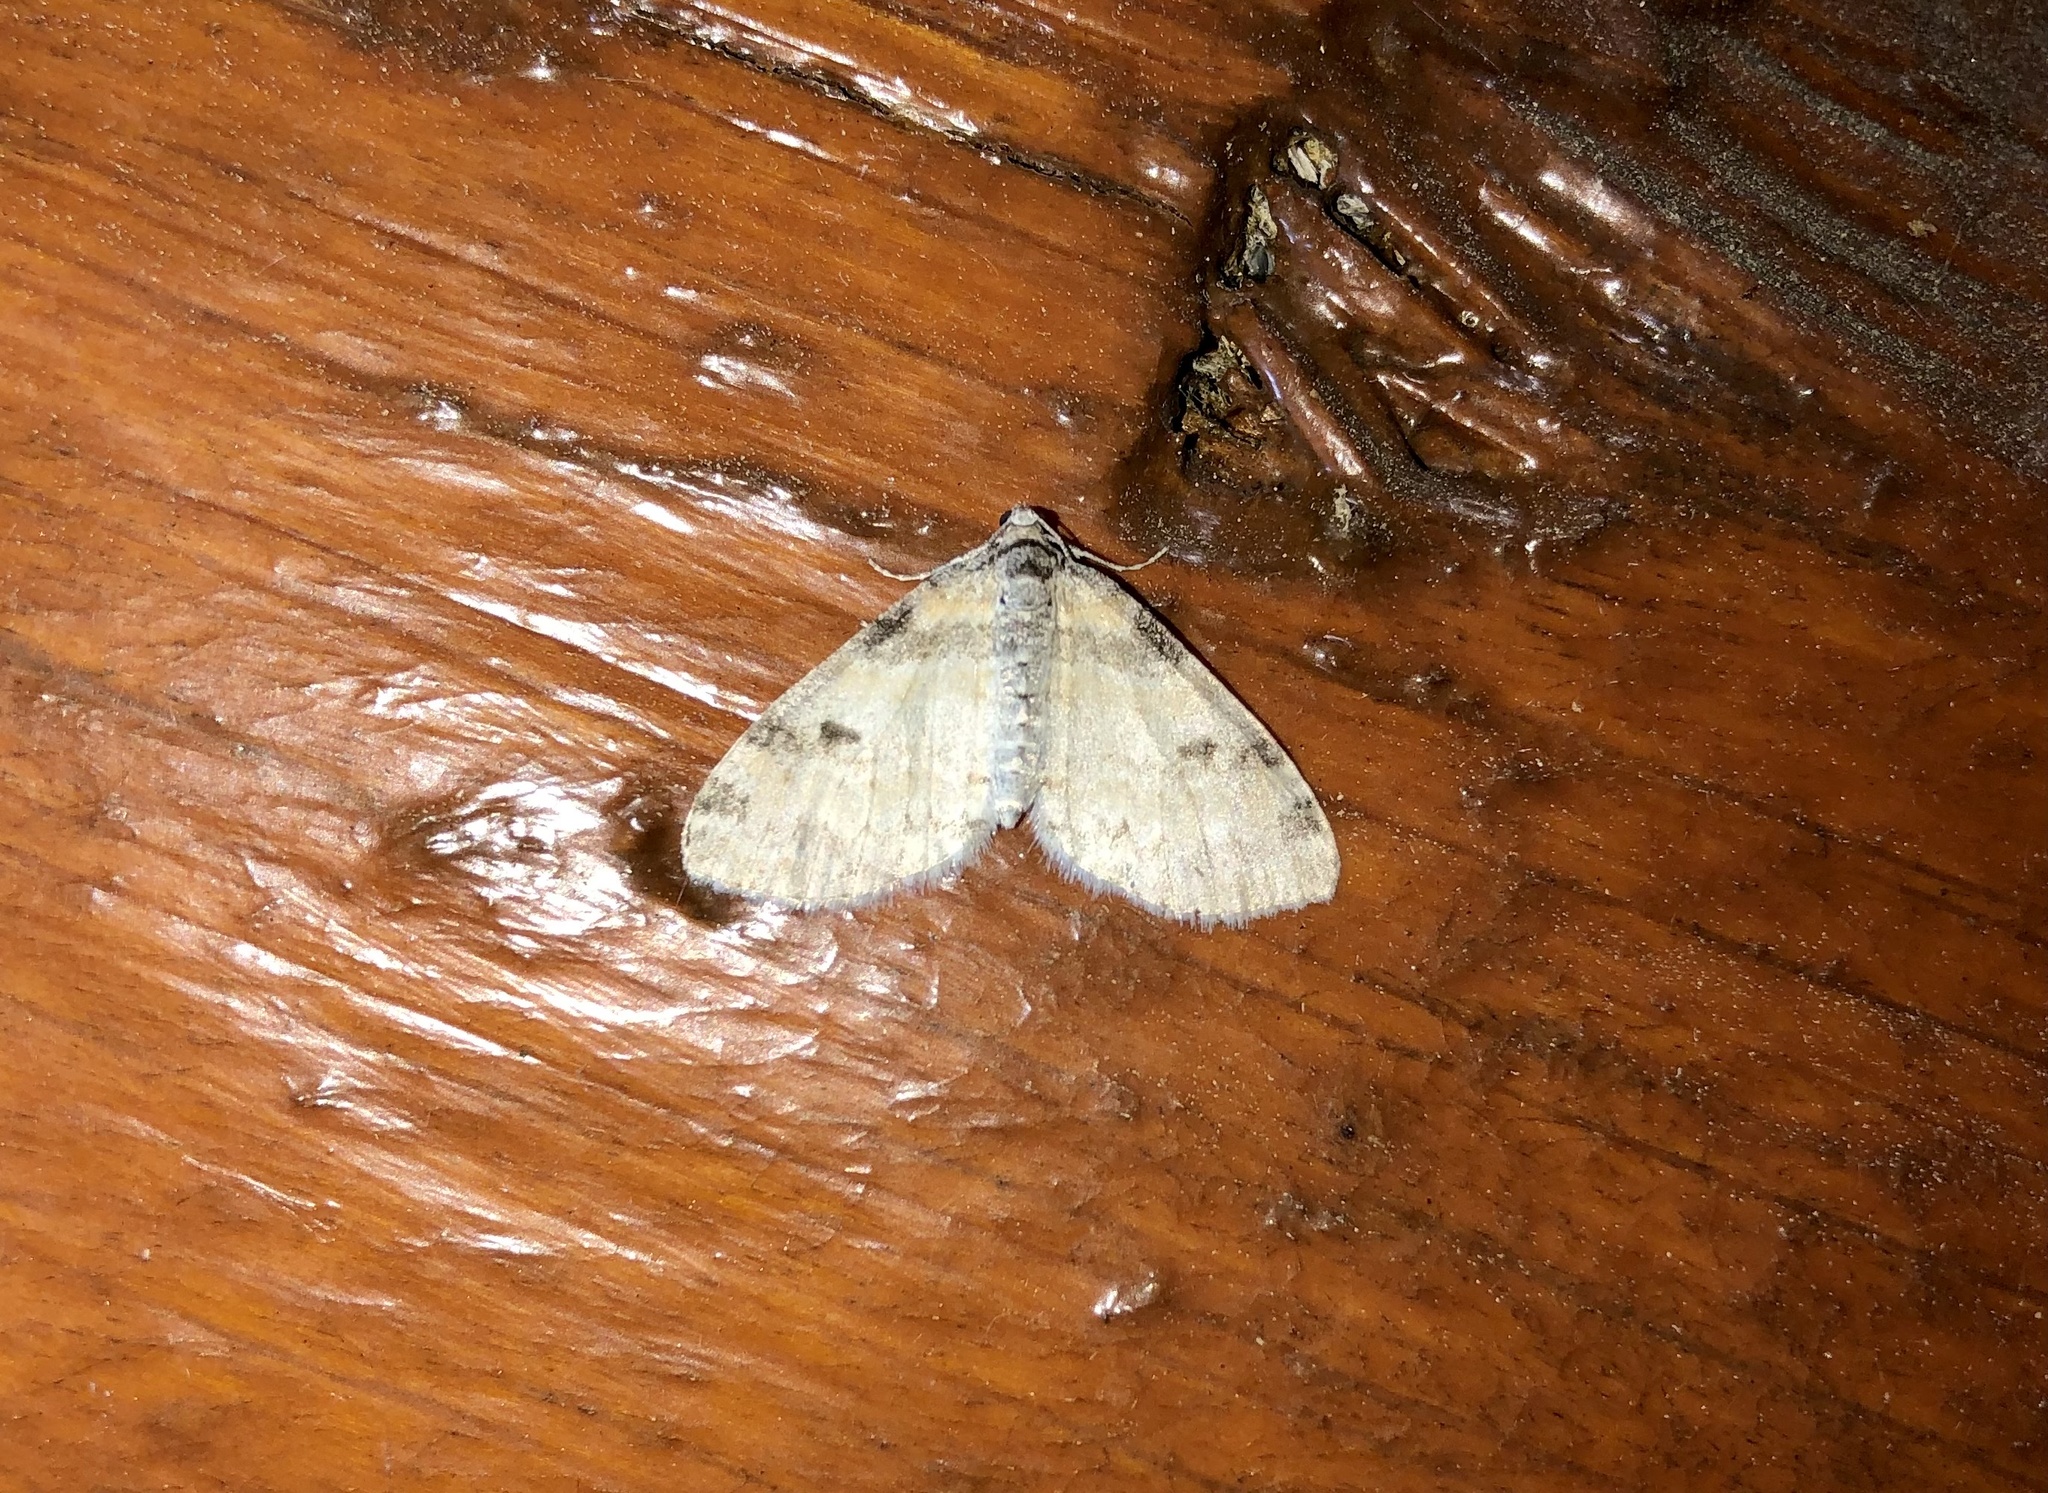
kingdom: Animalia
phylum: Arthropoda
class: Insecta
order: Lepidoptera
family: Geometridae
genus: Lobophora
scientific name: Lobophora nivigerata
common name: Powdered bigwing
